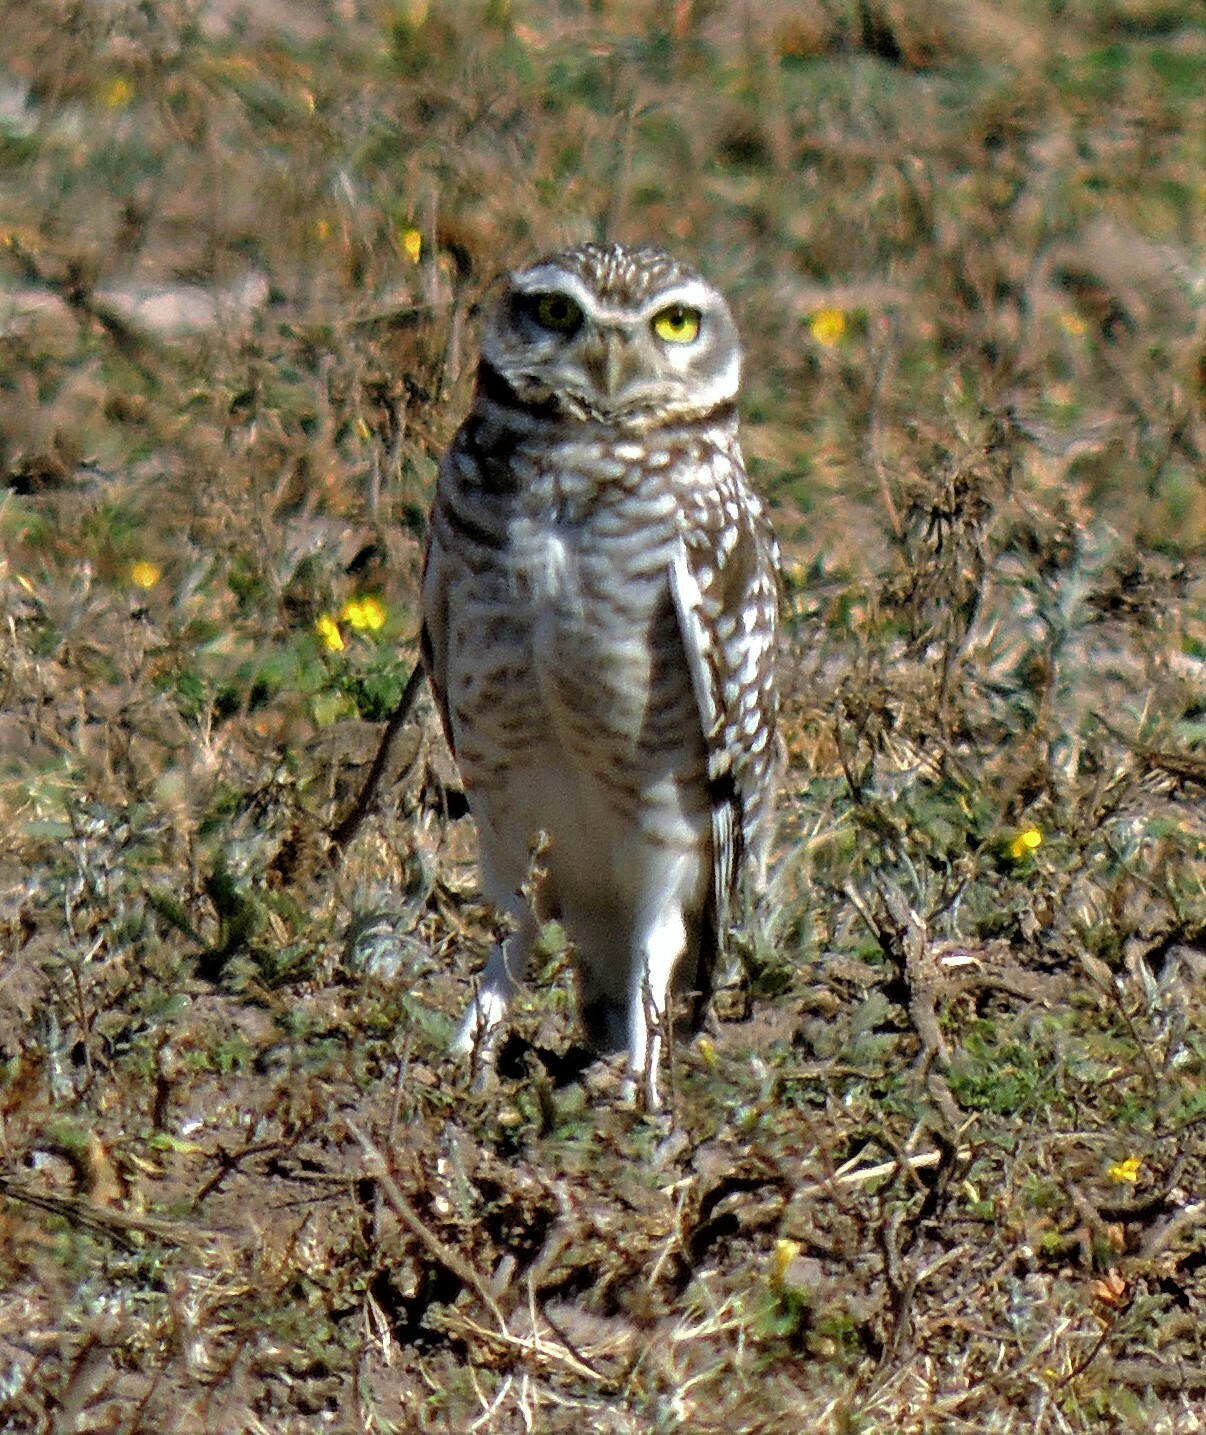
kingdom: Animalia
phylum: Chordata
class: Aves
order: Strigiformes
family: Strigidae
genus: Athene
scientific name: Athene cunicularia
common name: Burrowing owl
